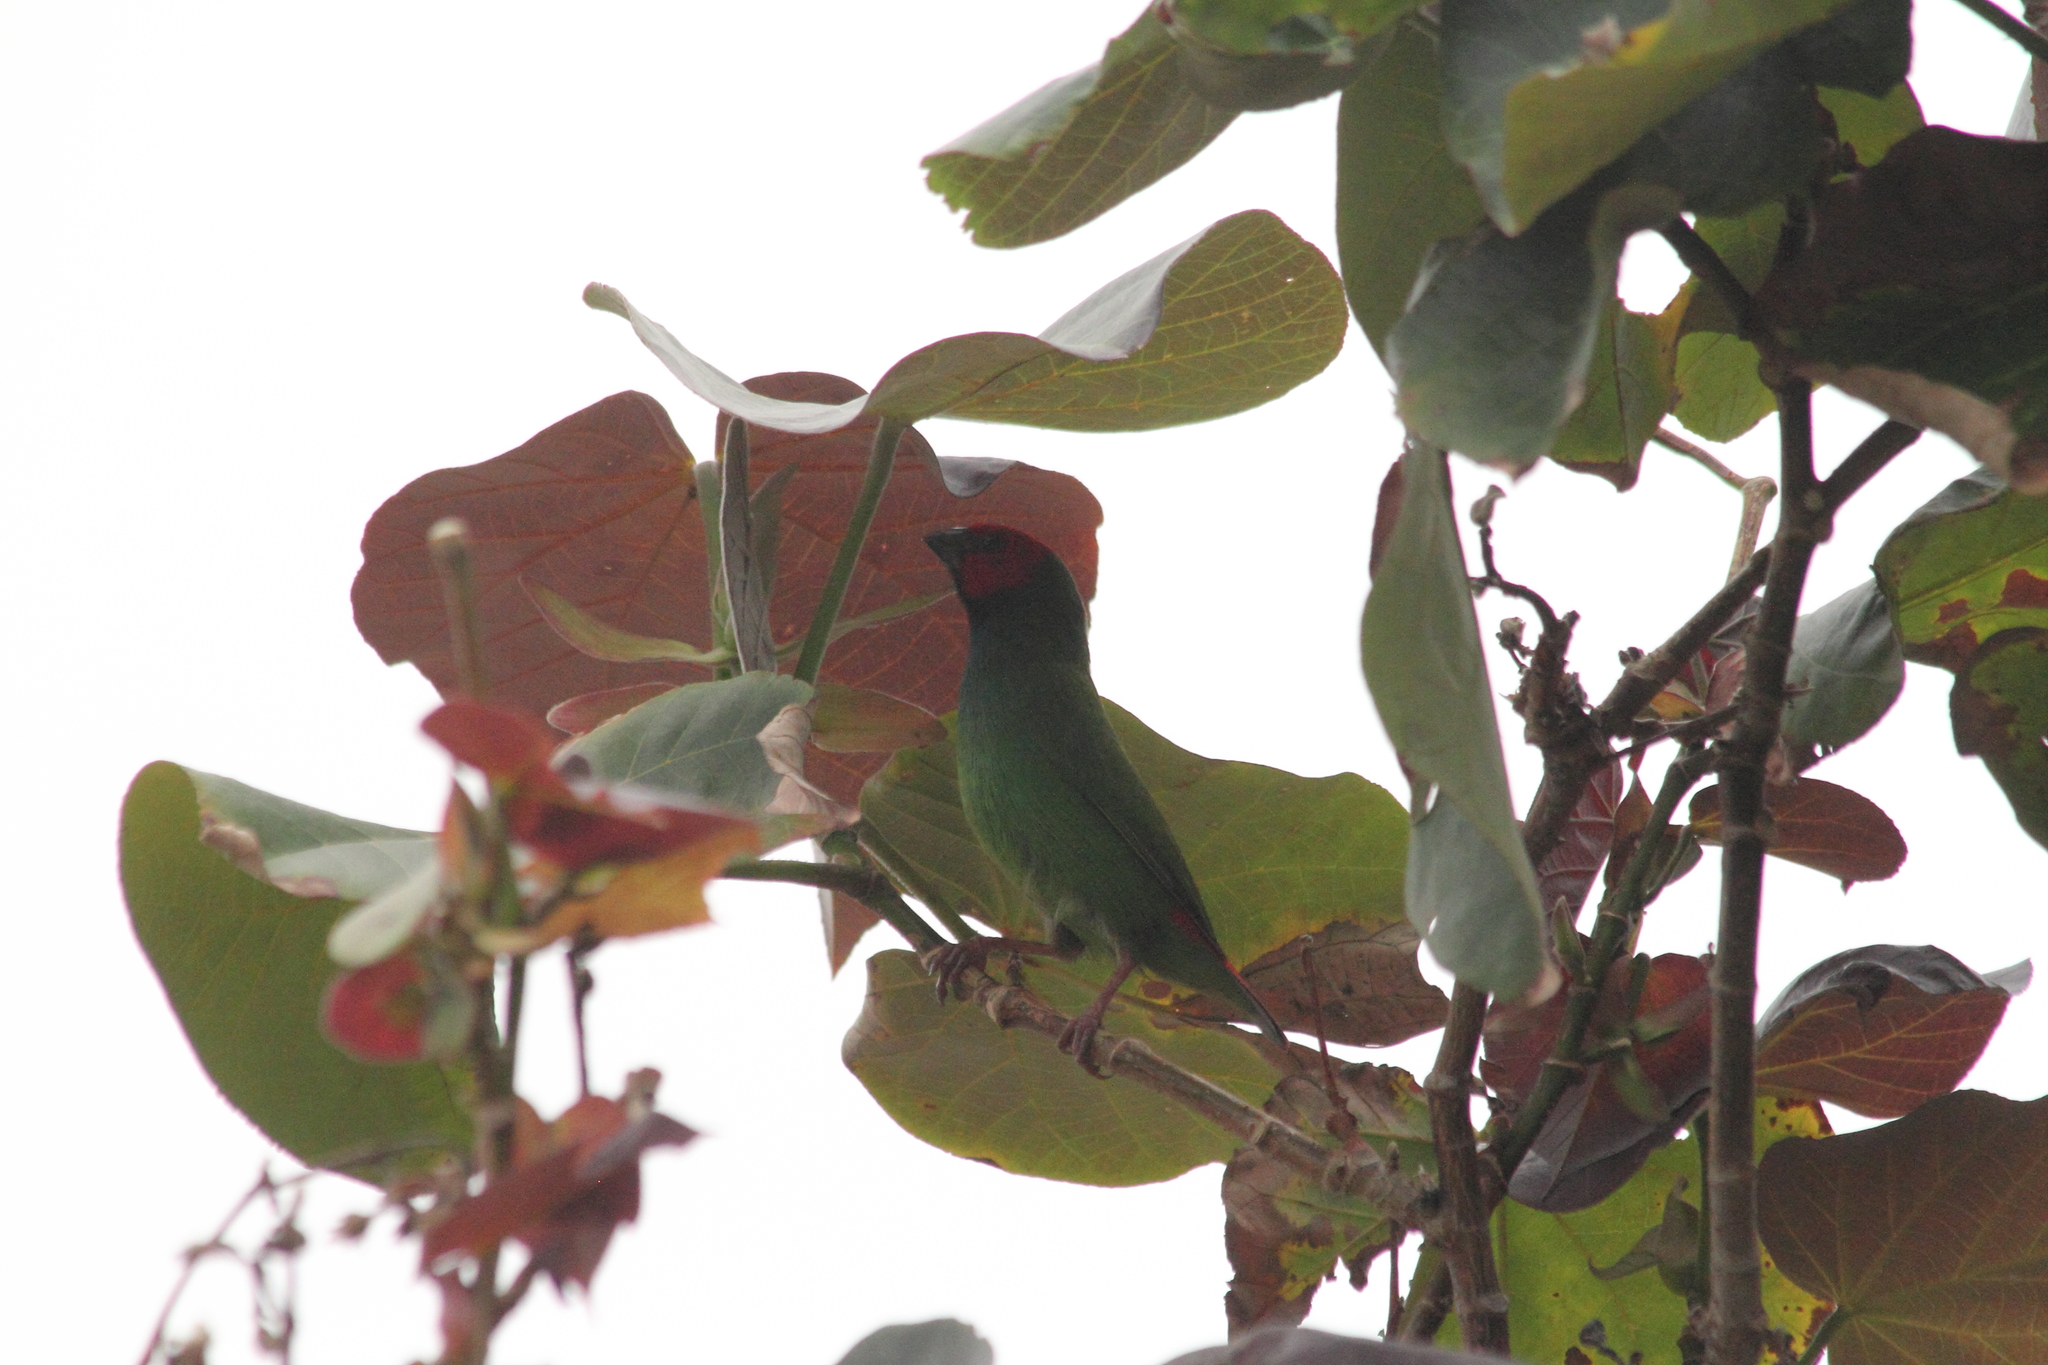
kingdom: Animalia
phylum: Chordata
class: Aves
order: Passeriformes
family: Estrildidae
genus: Erythrura
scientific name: Erythrura pealii
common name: Fiji parrotfinch
